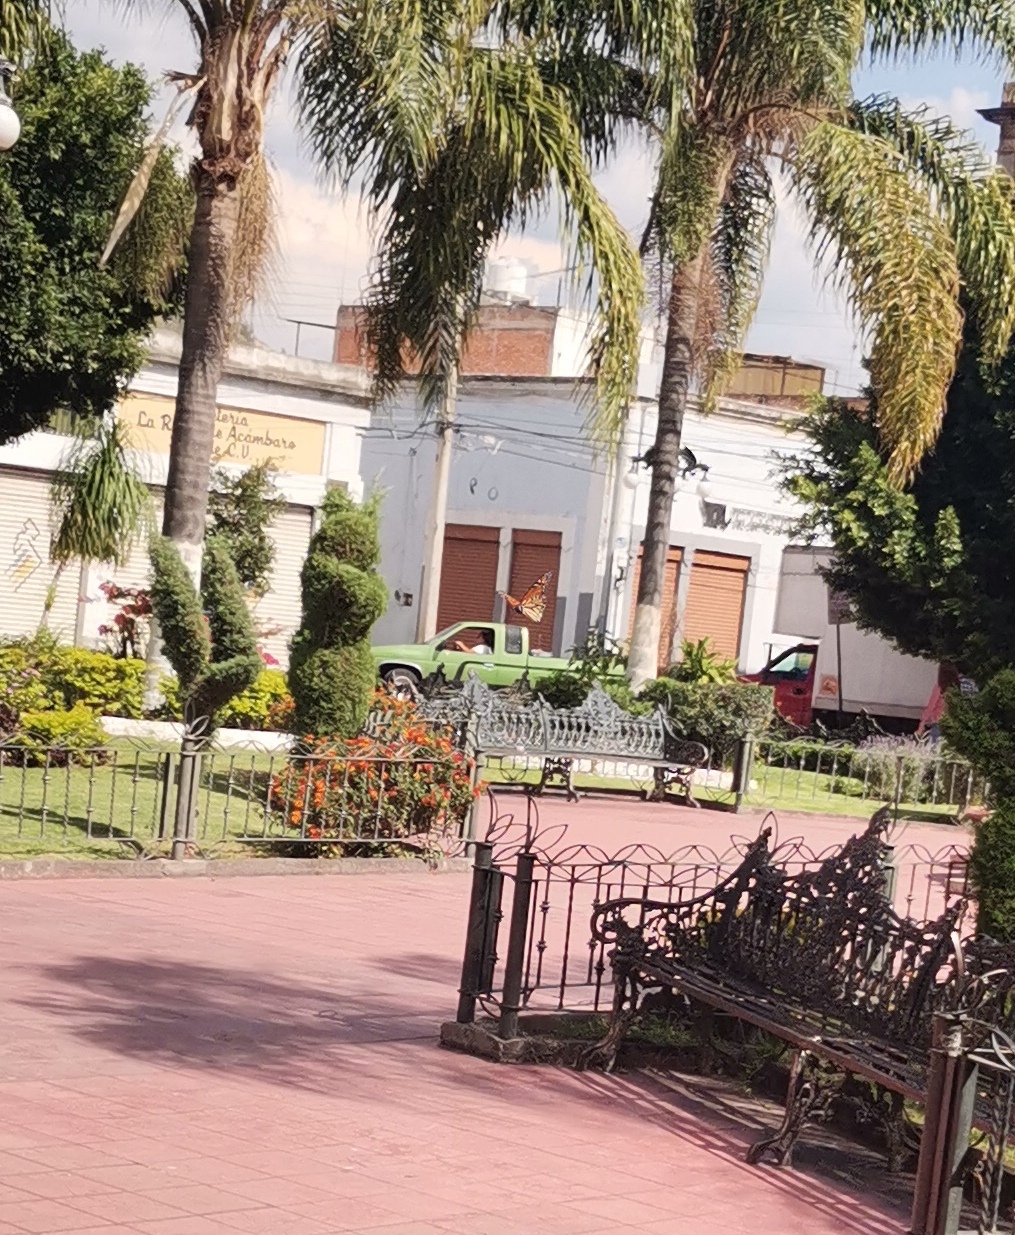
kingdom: Animalia
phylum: Arthropoda
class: Insecta
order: Lepidoptera
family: Nymphalidae
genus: Danaus
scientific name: Danaus plexippus
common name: Monarch
